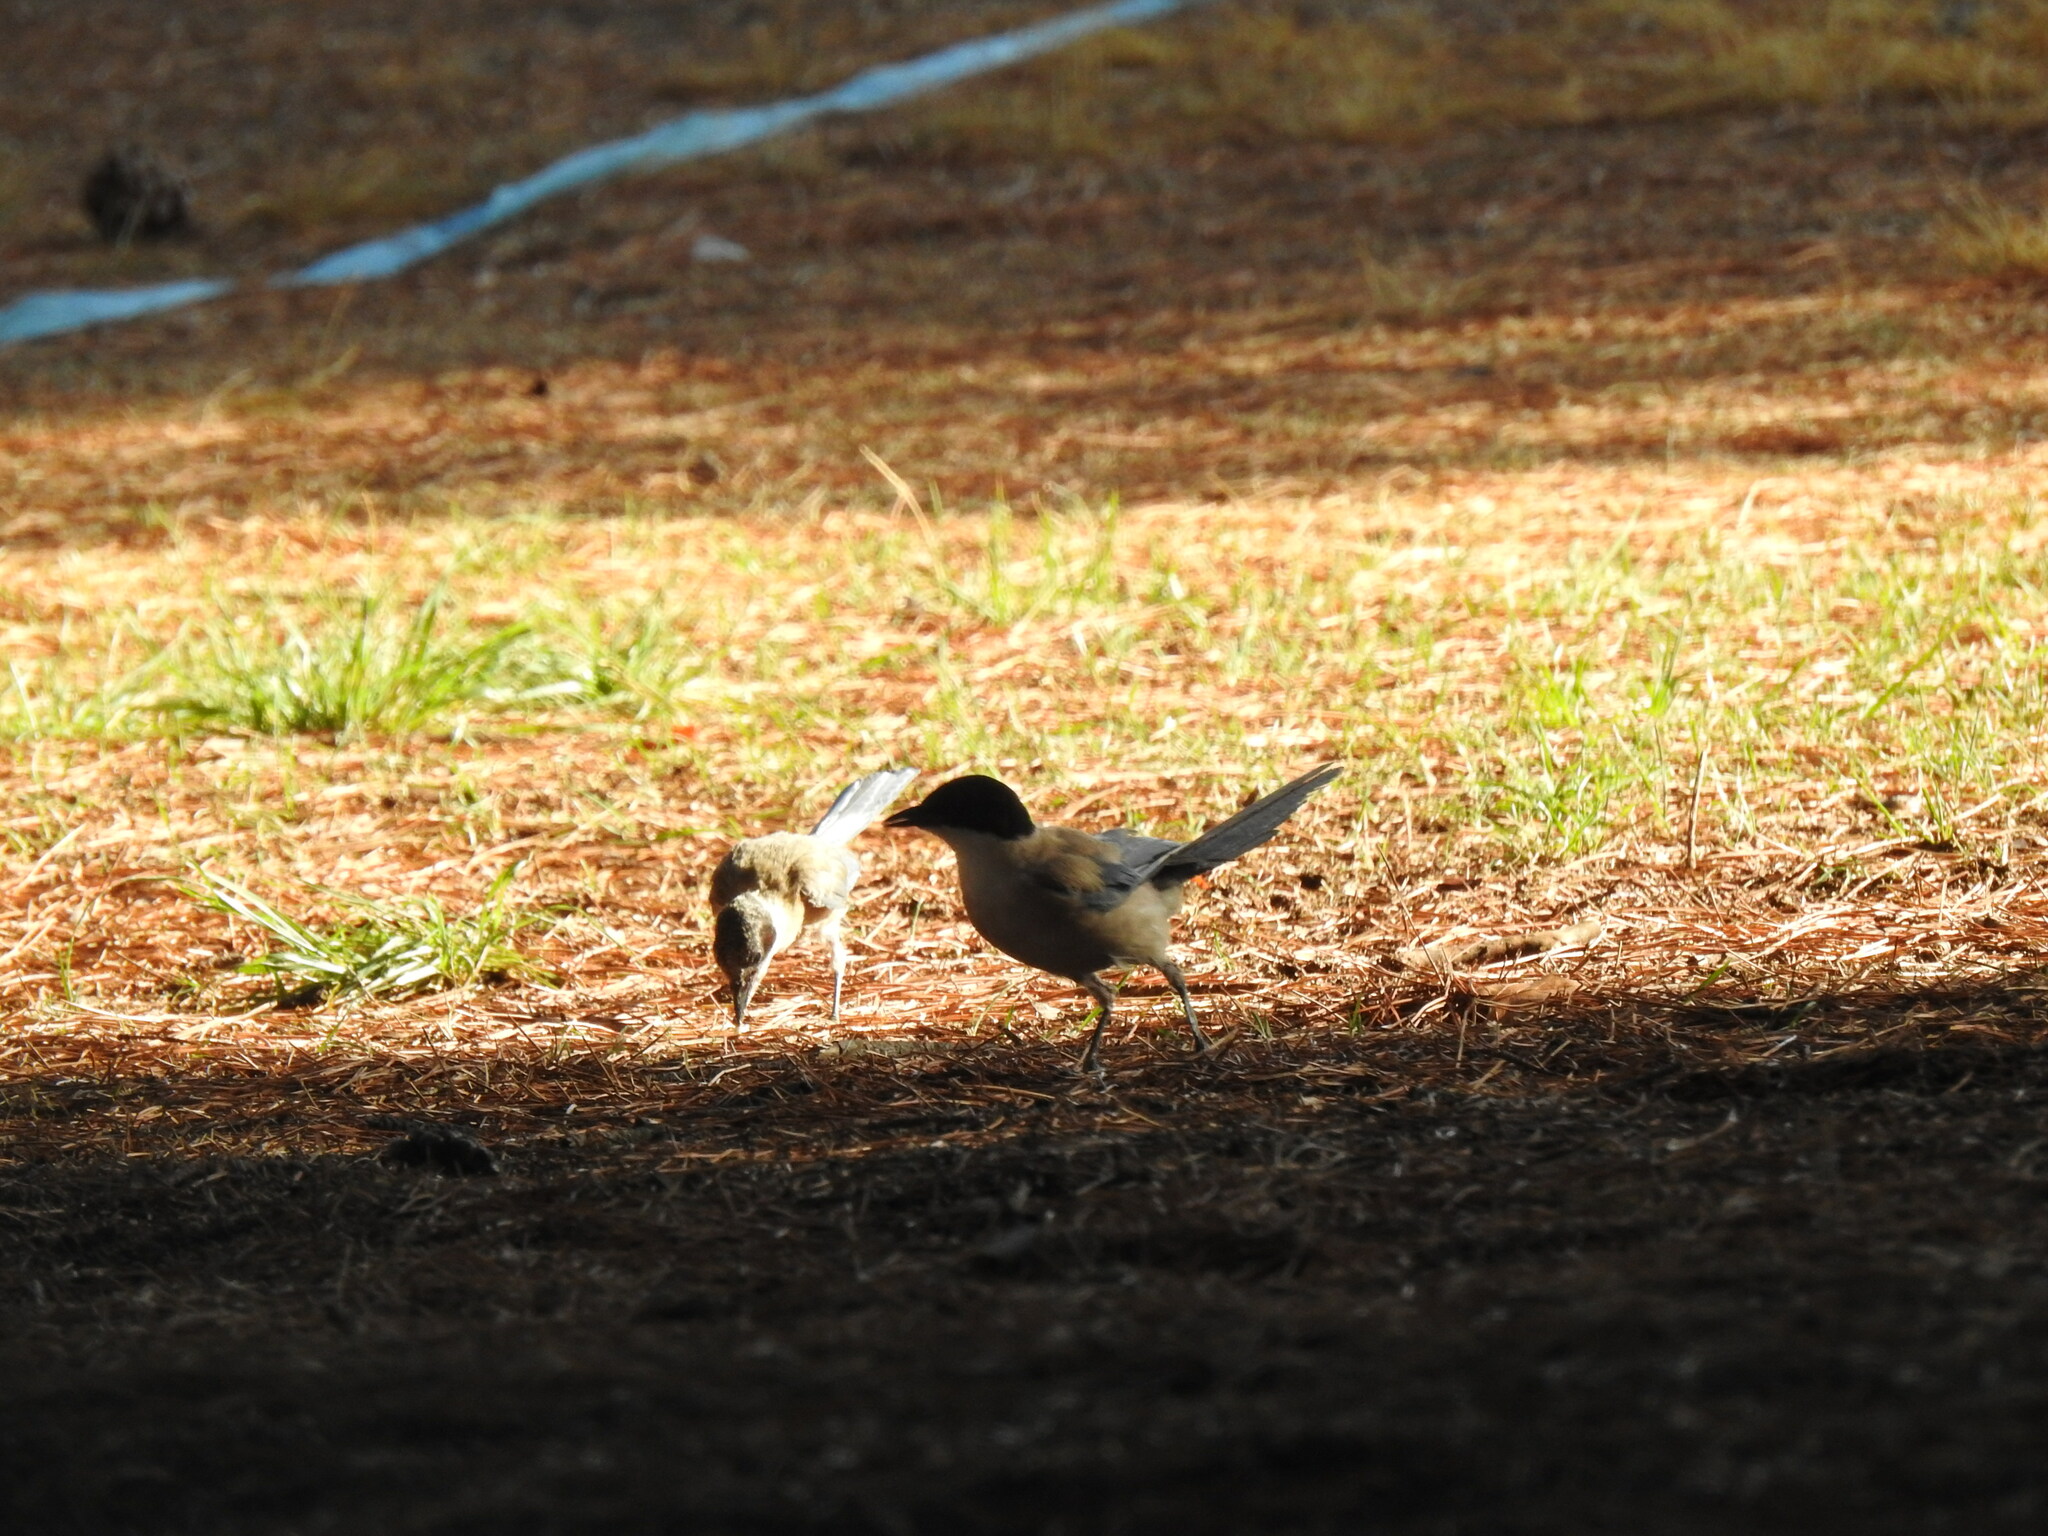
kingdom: Animalia
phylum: Chordata
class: Aves
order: Passeriformes
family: Corvidae
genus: Cyanopica
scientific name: Cyanopica cooki
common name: Iberian magpie
